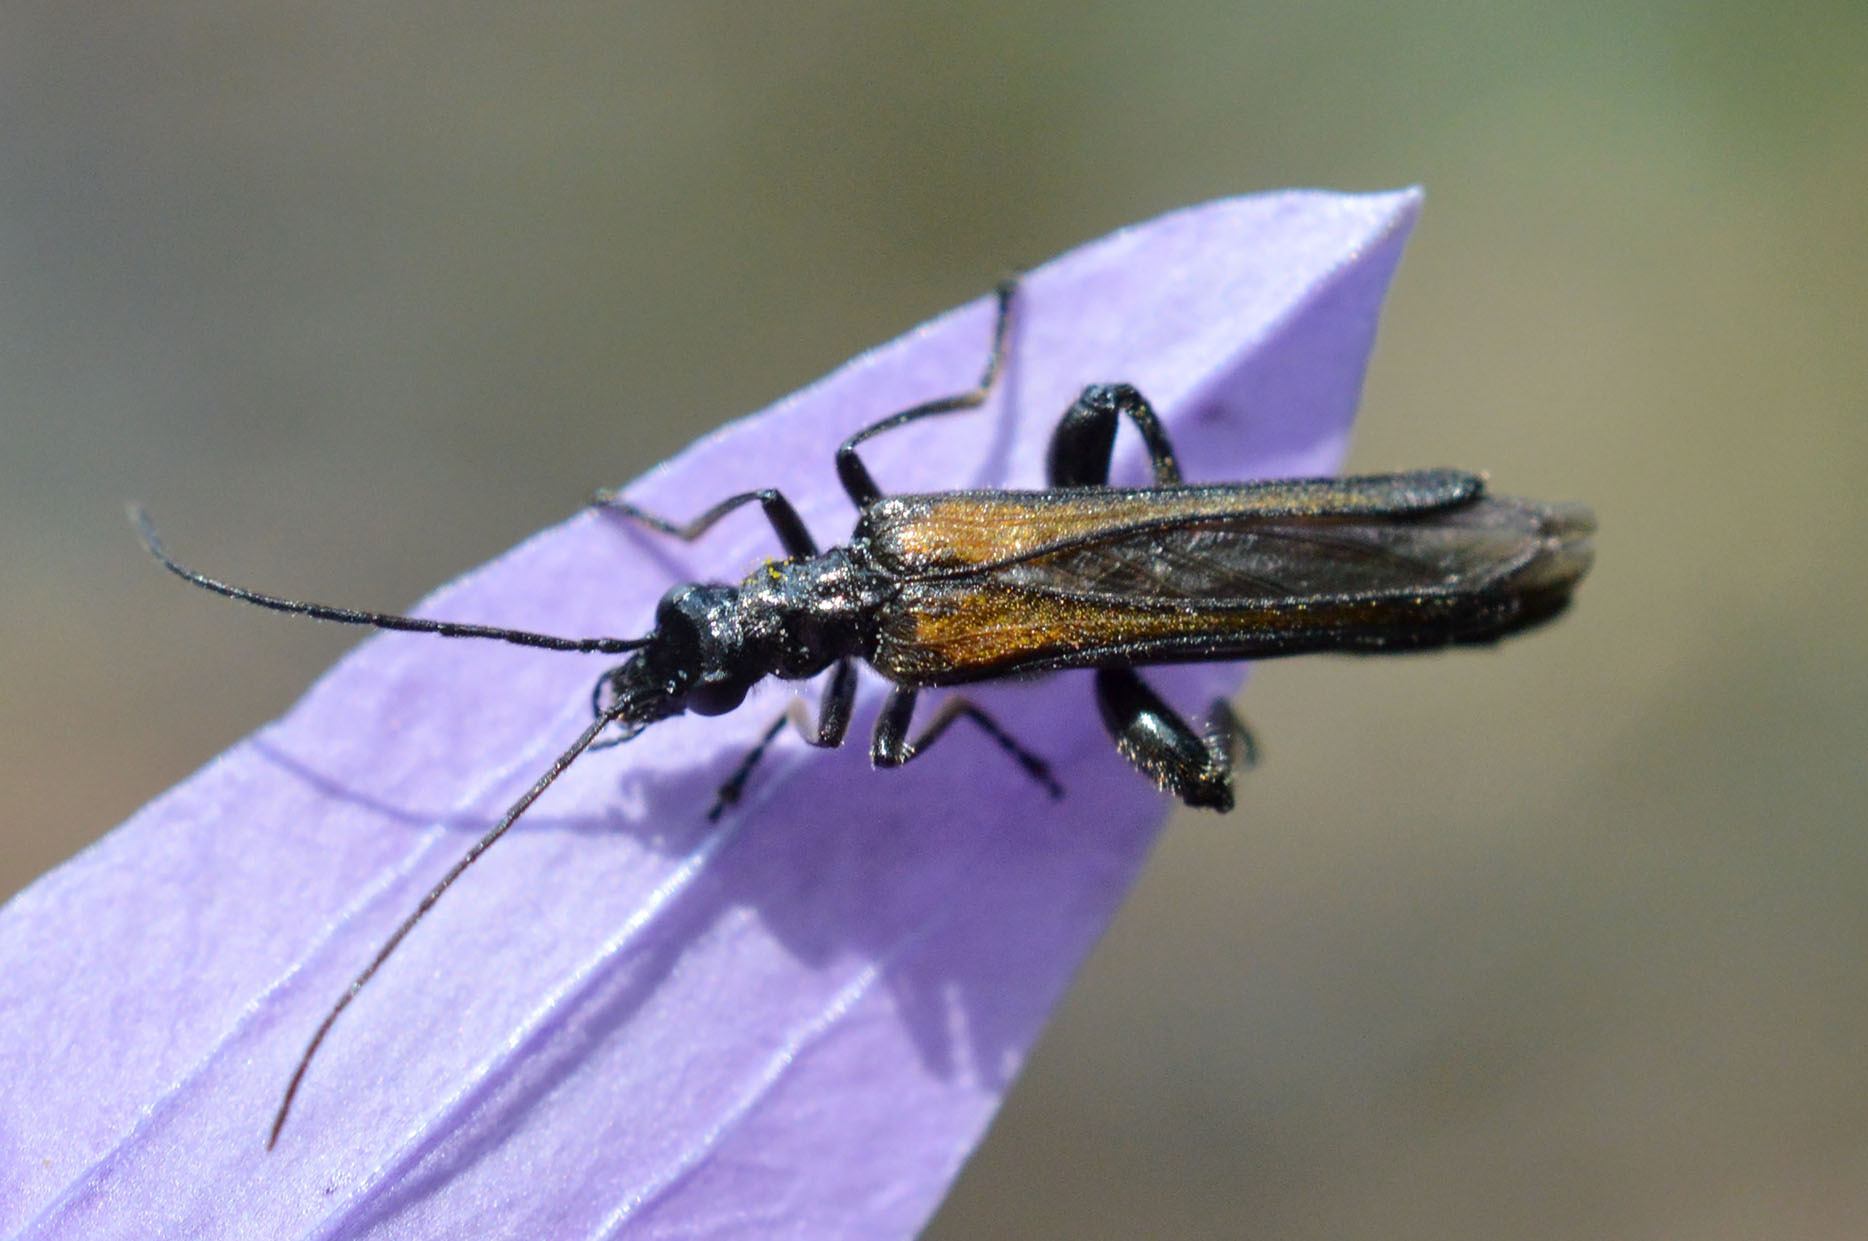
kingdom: Animalia
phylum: Arthropoda
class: Insecta
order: Coleoptera
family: Oedemeridae
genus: Oedemera
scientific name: Oedemera pthysica
